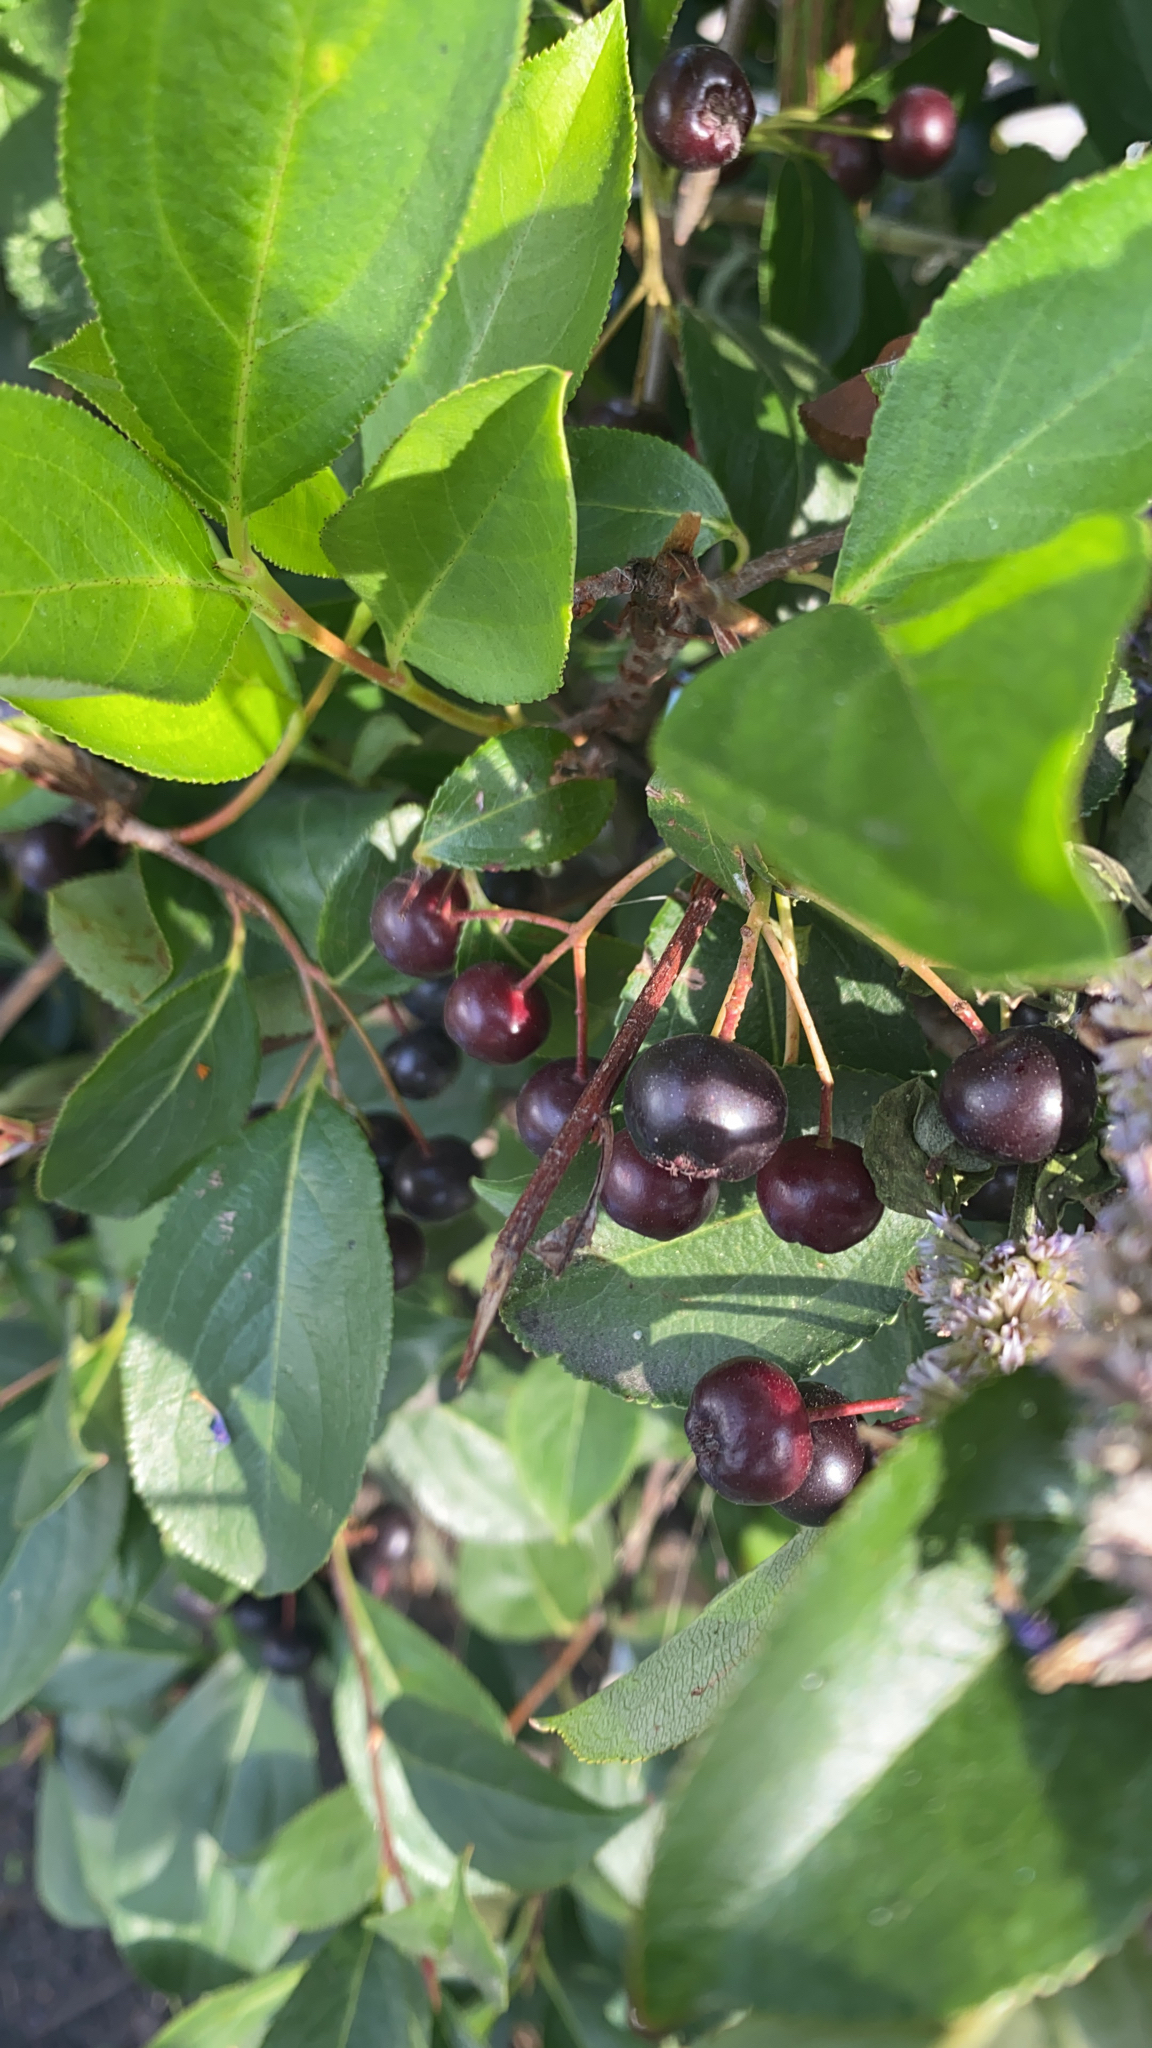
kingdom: Plantae
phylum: Tracheophyta
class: Magnoliopsida
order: Rosales
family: Rosaceae
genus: Aronia
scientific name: Aronia melanocarpa
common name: Black chokeberry
